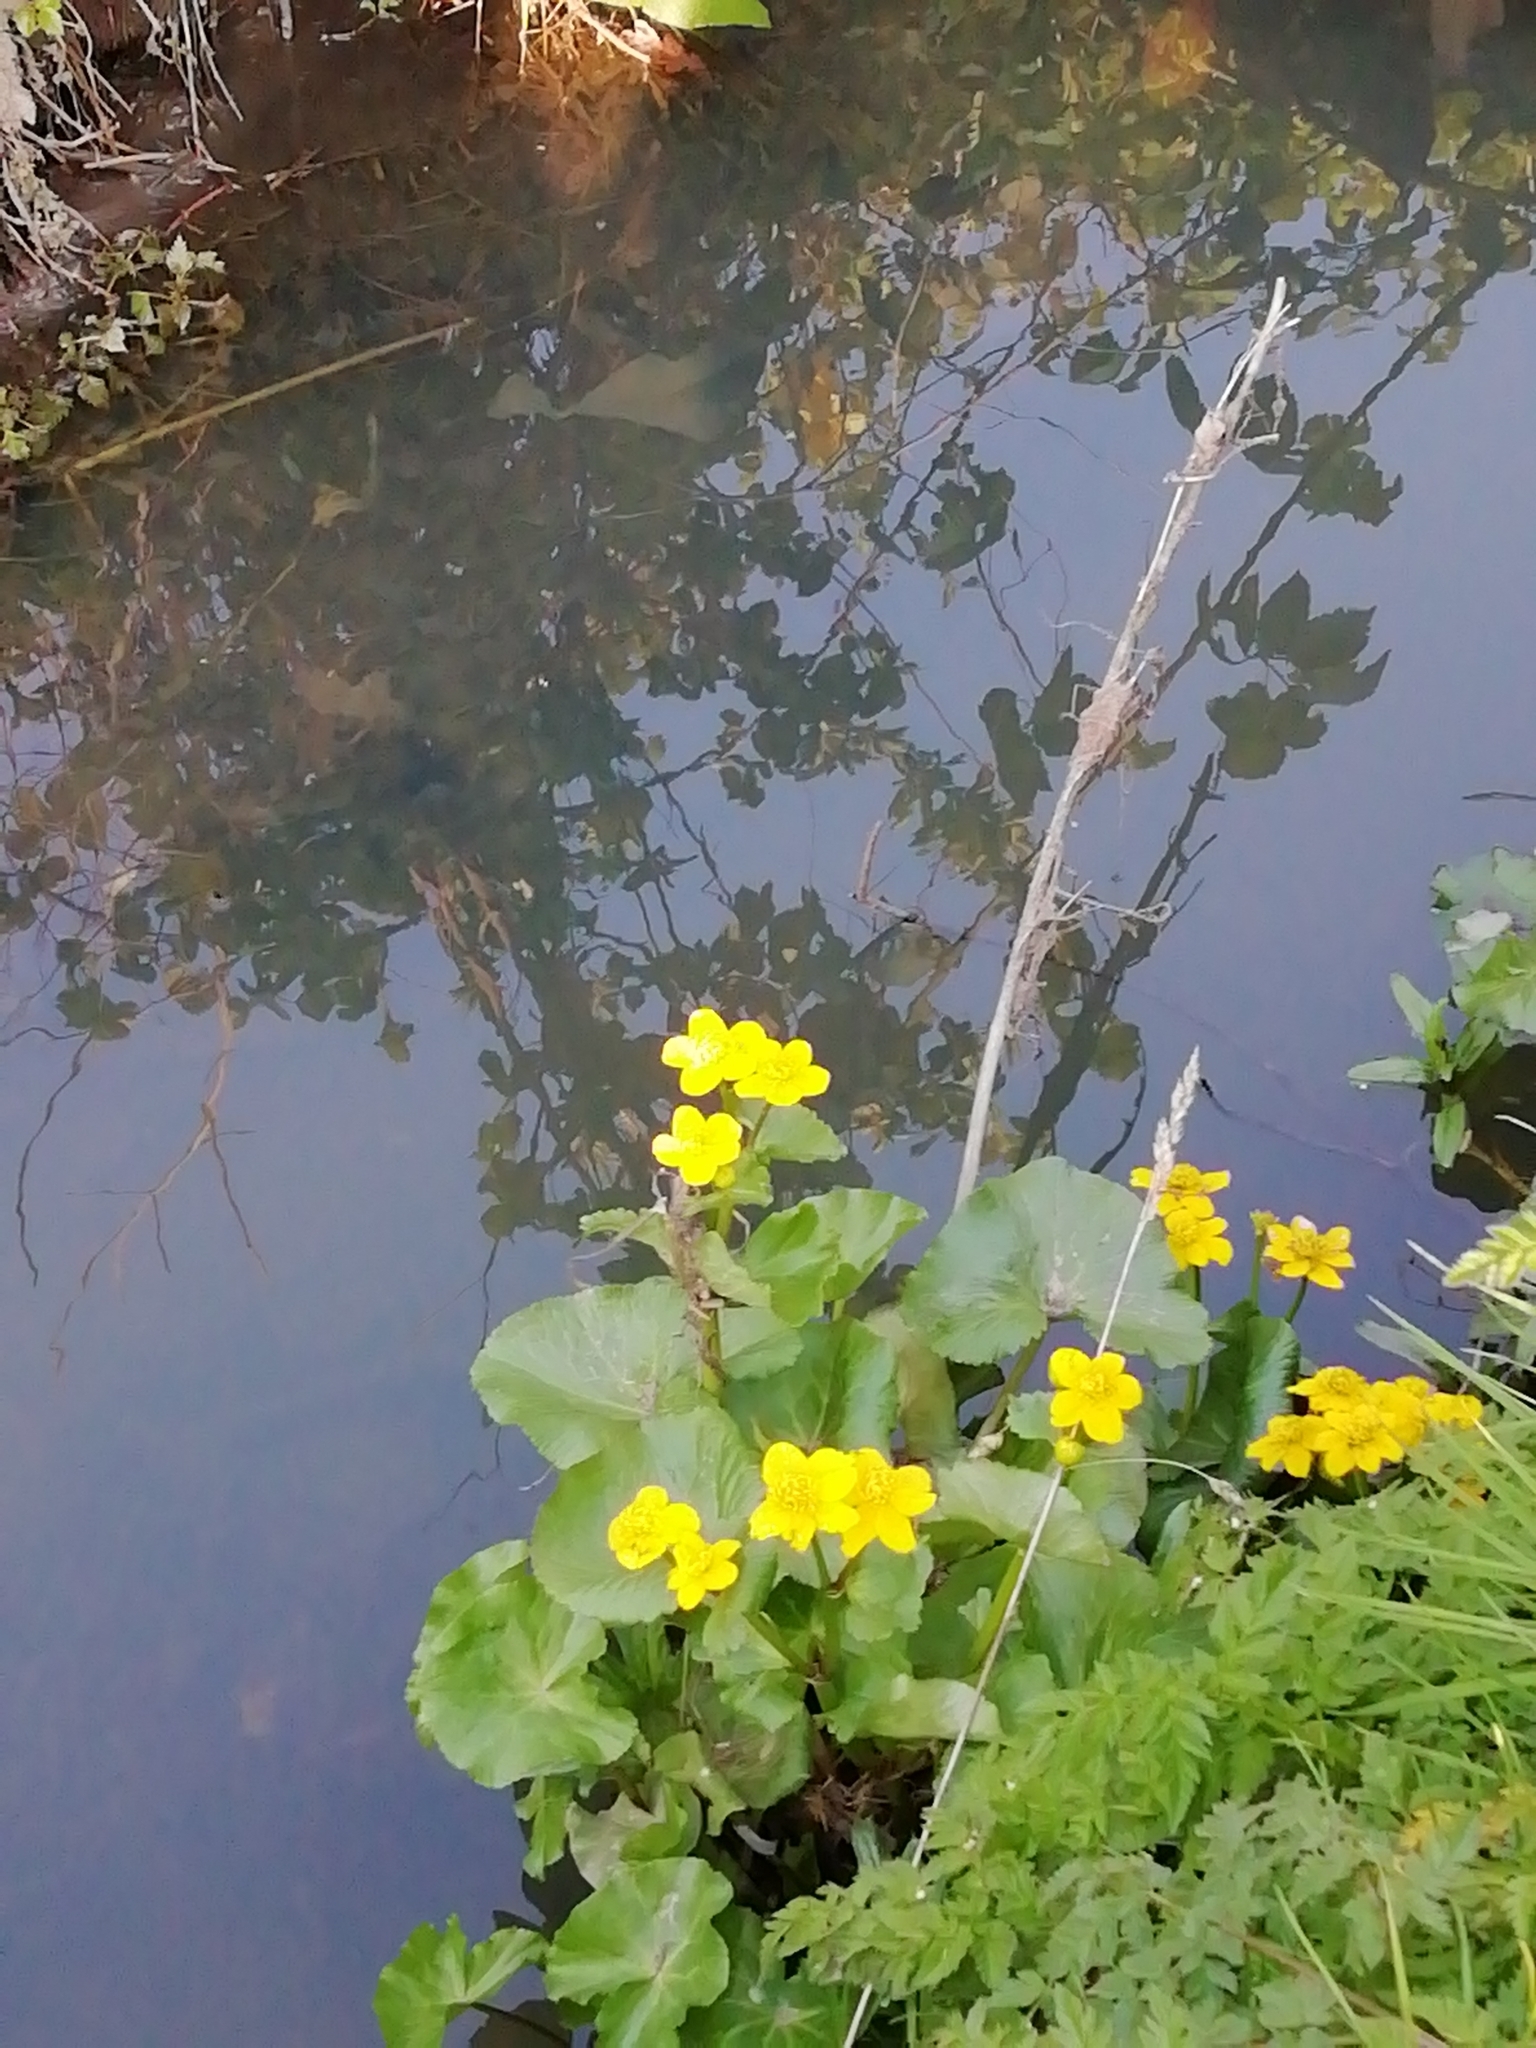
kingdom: Plantae
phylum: Tracheophyta
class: Magnoliopsida
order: Ranunculales
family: Ranunculaceae
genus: Caltha
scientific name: Caltha palustris
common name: Marsh marigold
